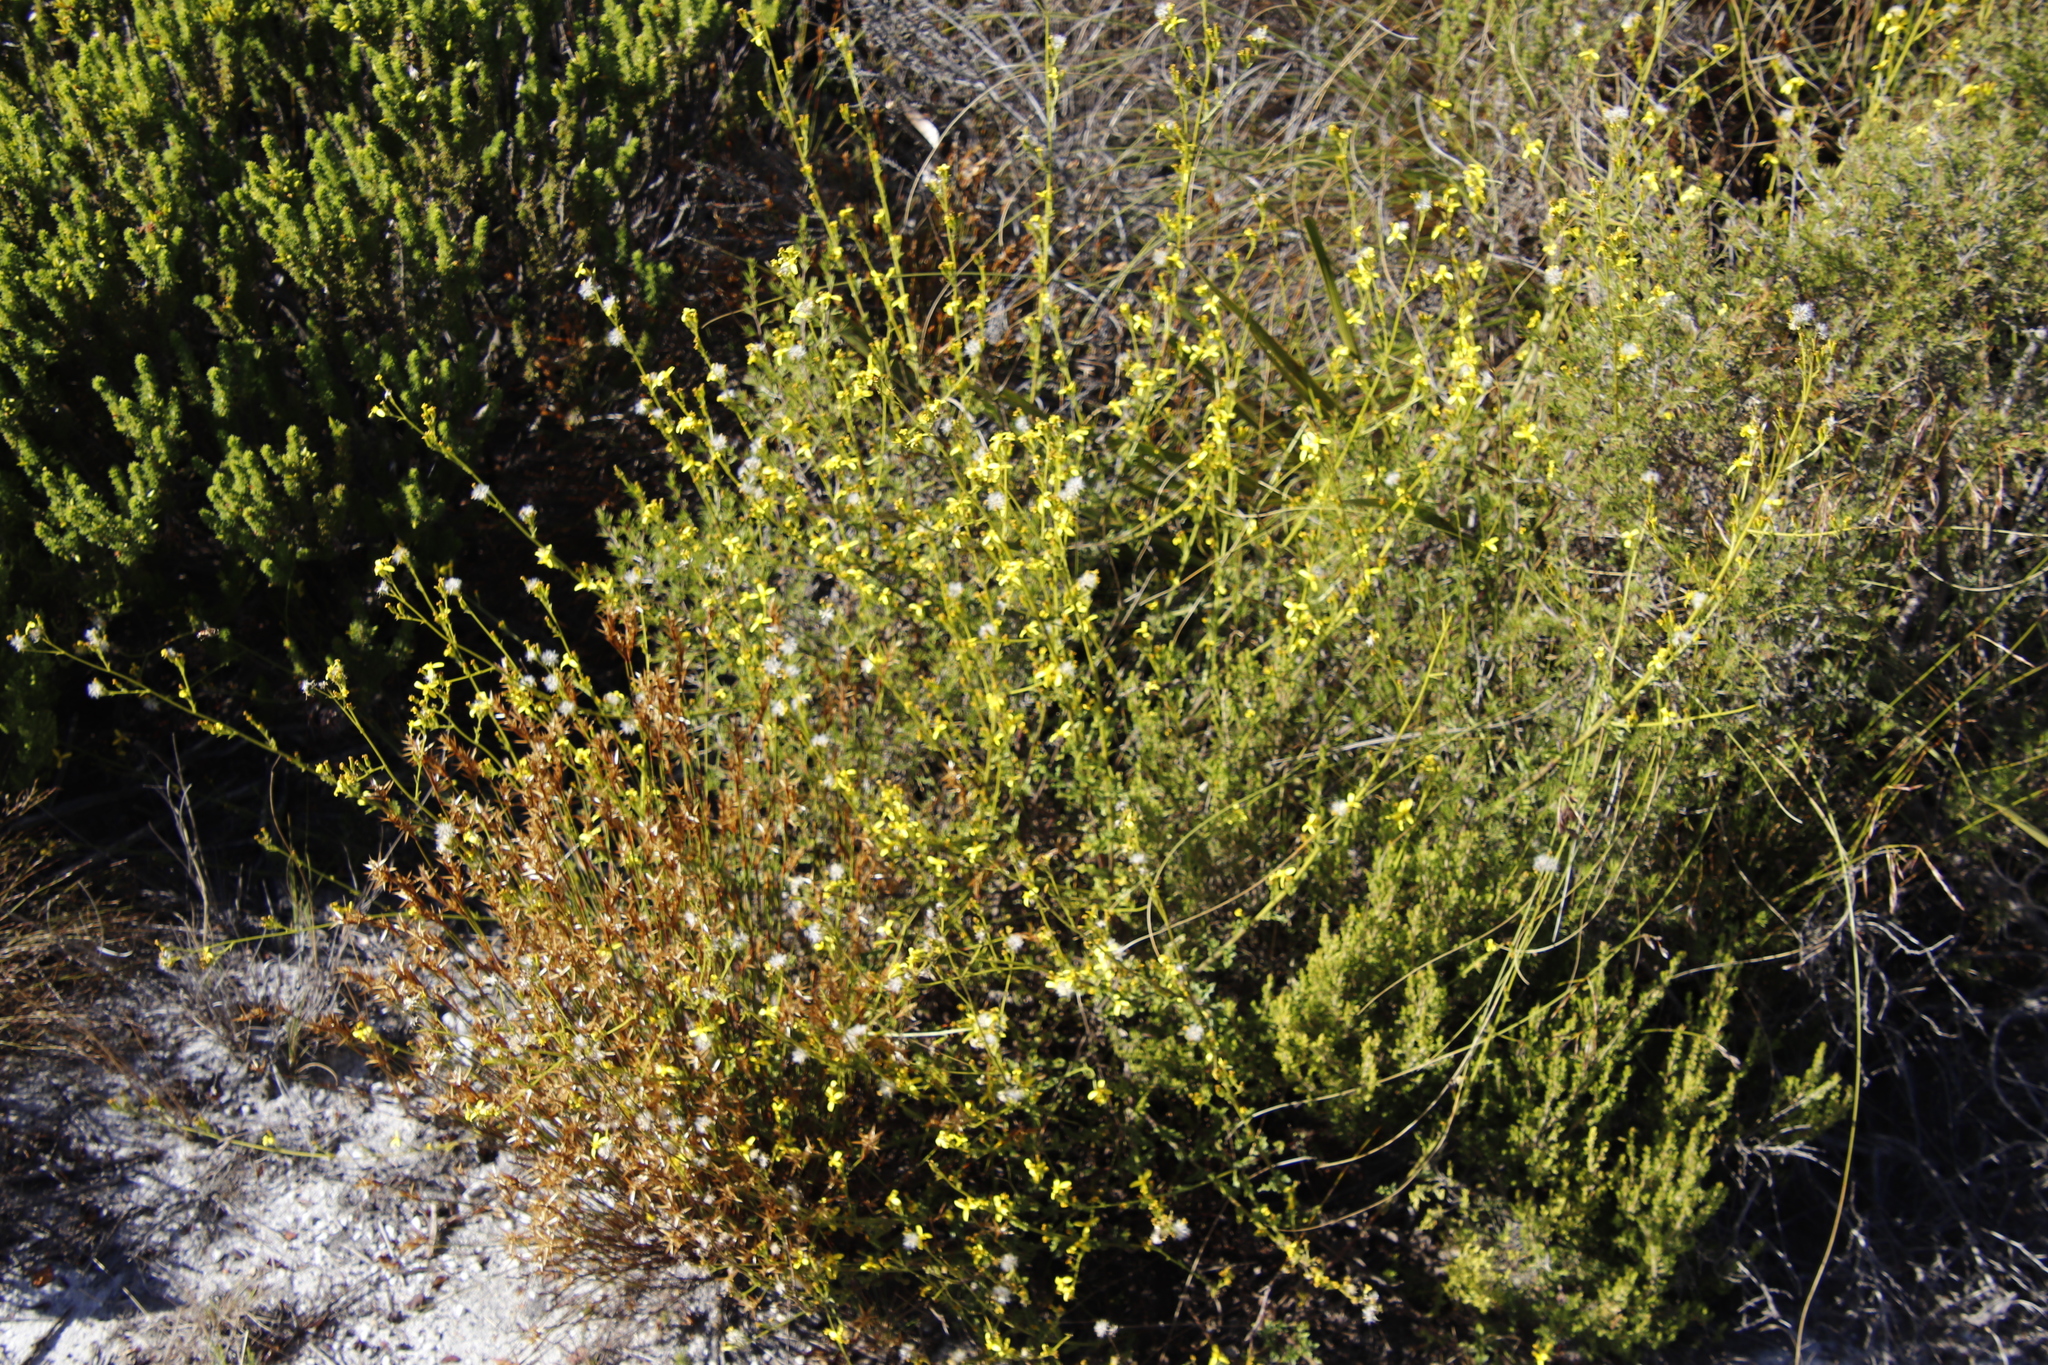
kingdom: Plantae
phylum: Tracheophyta
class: Magnoliopsida
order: Asterales
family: Asteraceae
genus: Senecio
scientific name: Senecio pubigerus
